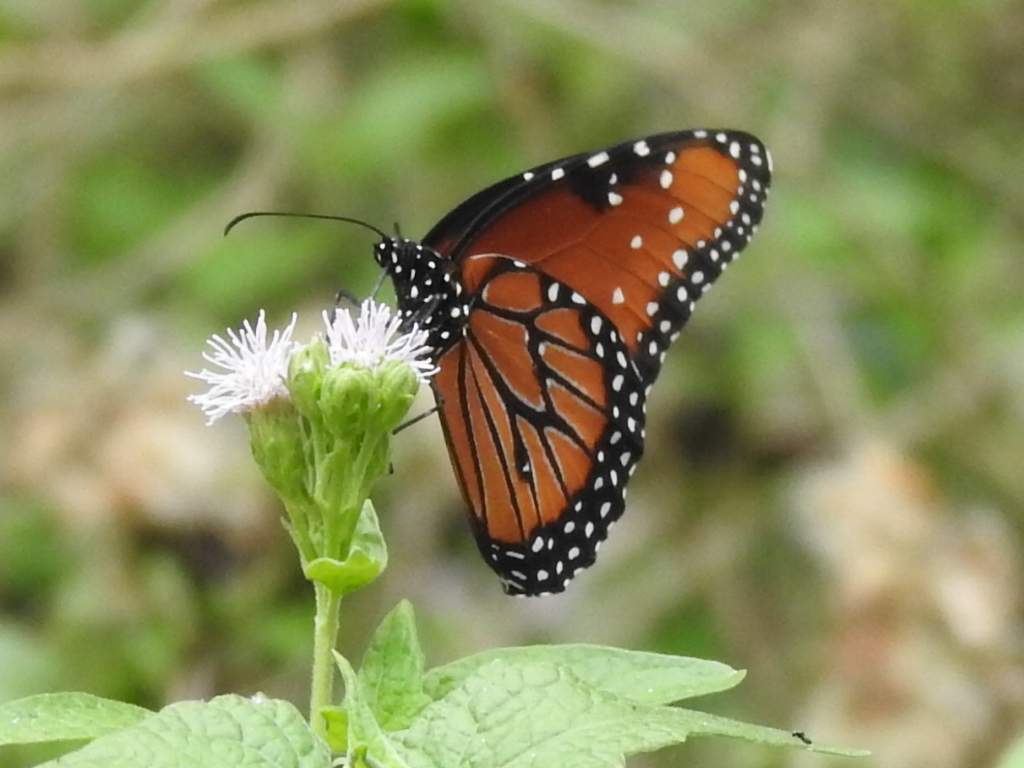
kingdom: Animalia
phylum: Arthropoda
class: Insecta
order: Lepidoptera
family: Nymphalidae
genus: Danaus
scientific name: Danaus gilippus
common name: Queen
